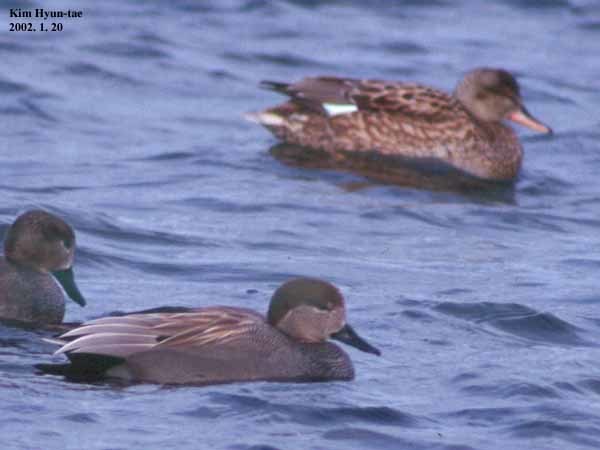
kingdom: Animalia
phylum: Chordata
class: Aves
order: Anseriformes
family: Anatidae
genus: Mareca
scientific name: Mareca strepera
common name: Gadwall
